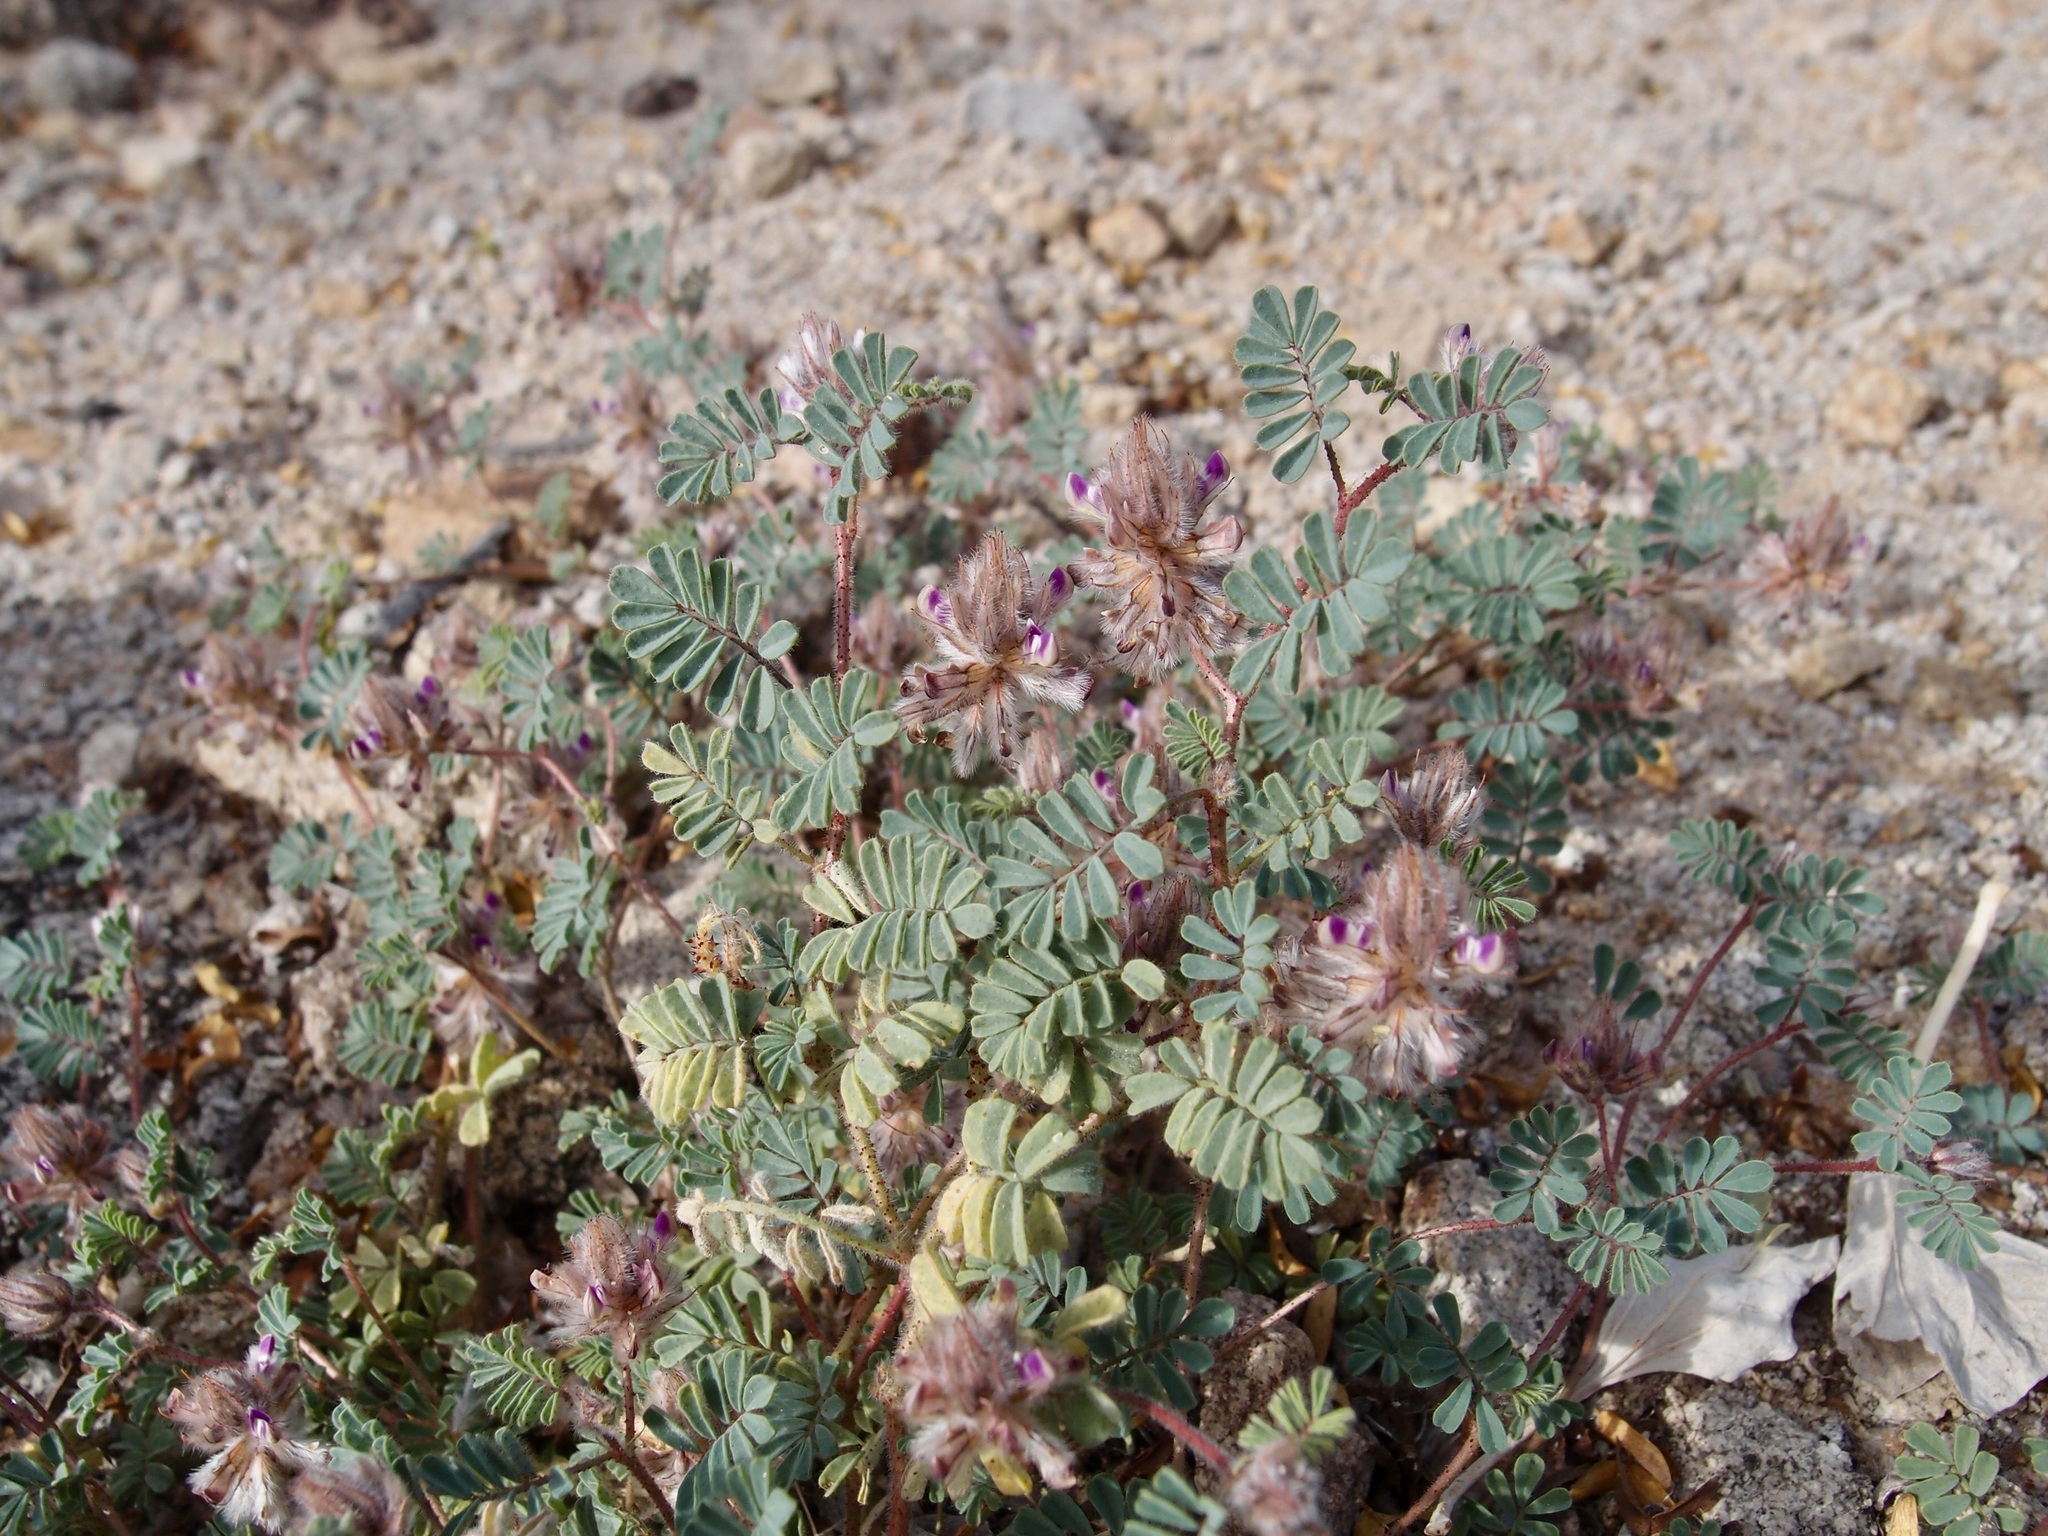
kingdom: Plantae
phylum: Tracheophyta
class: Magnoliopsida
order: Fabales
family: Fabaceae
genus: Dalea
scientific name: Dalea mollis
